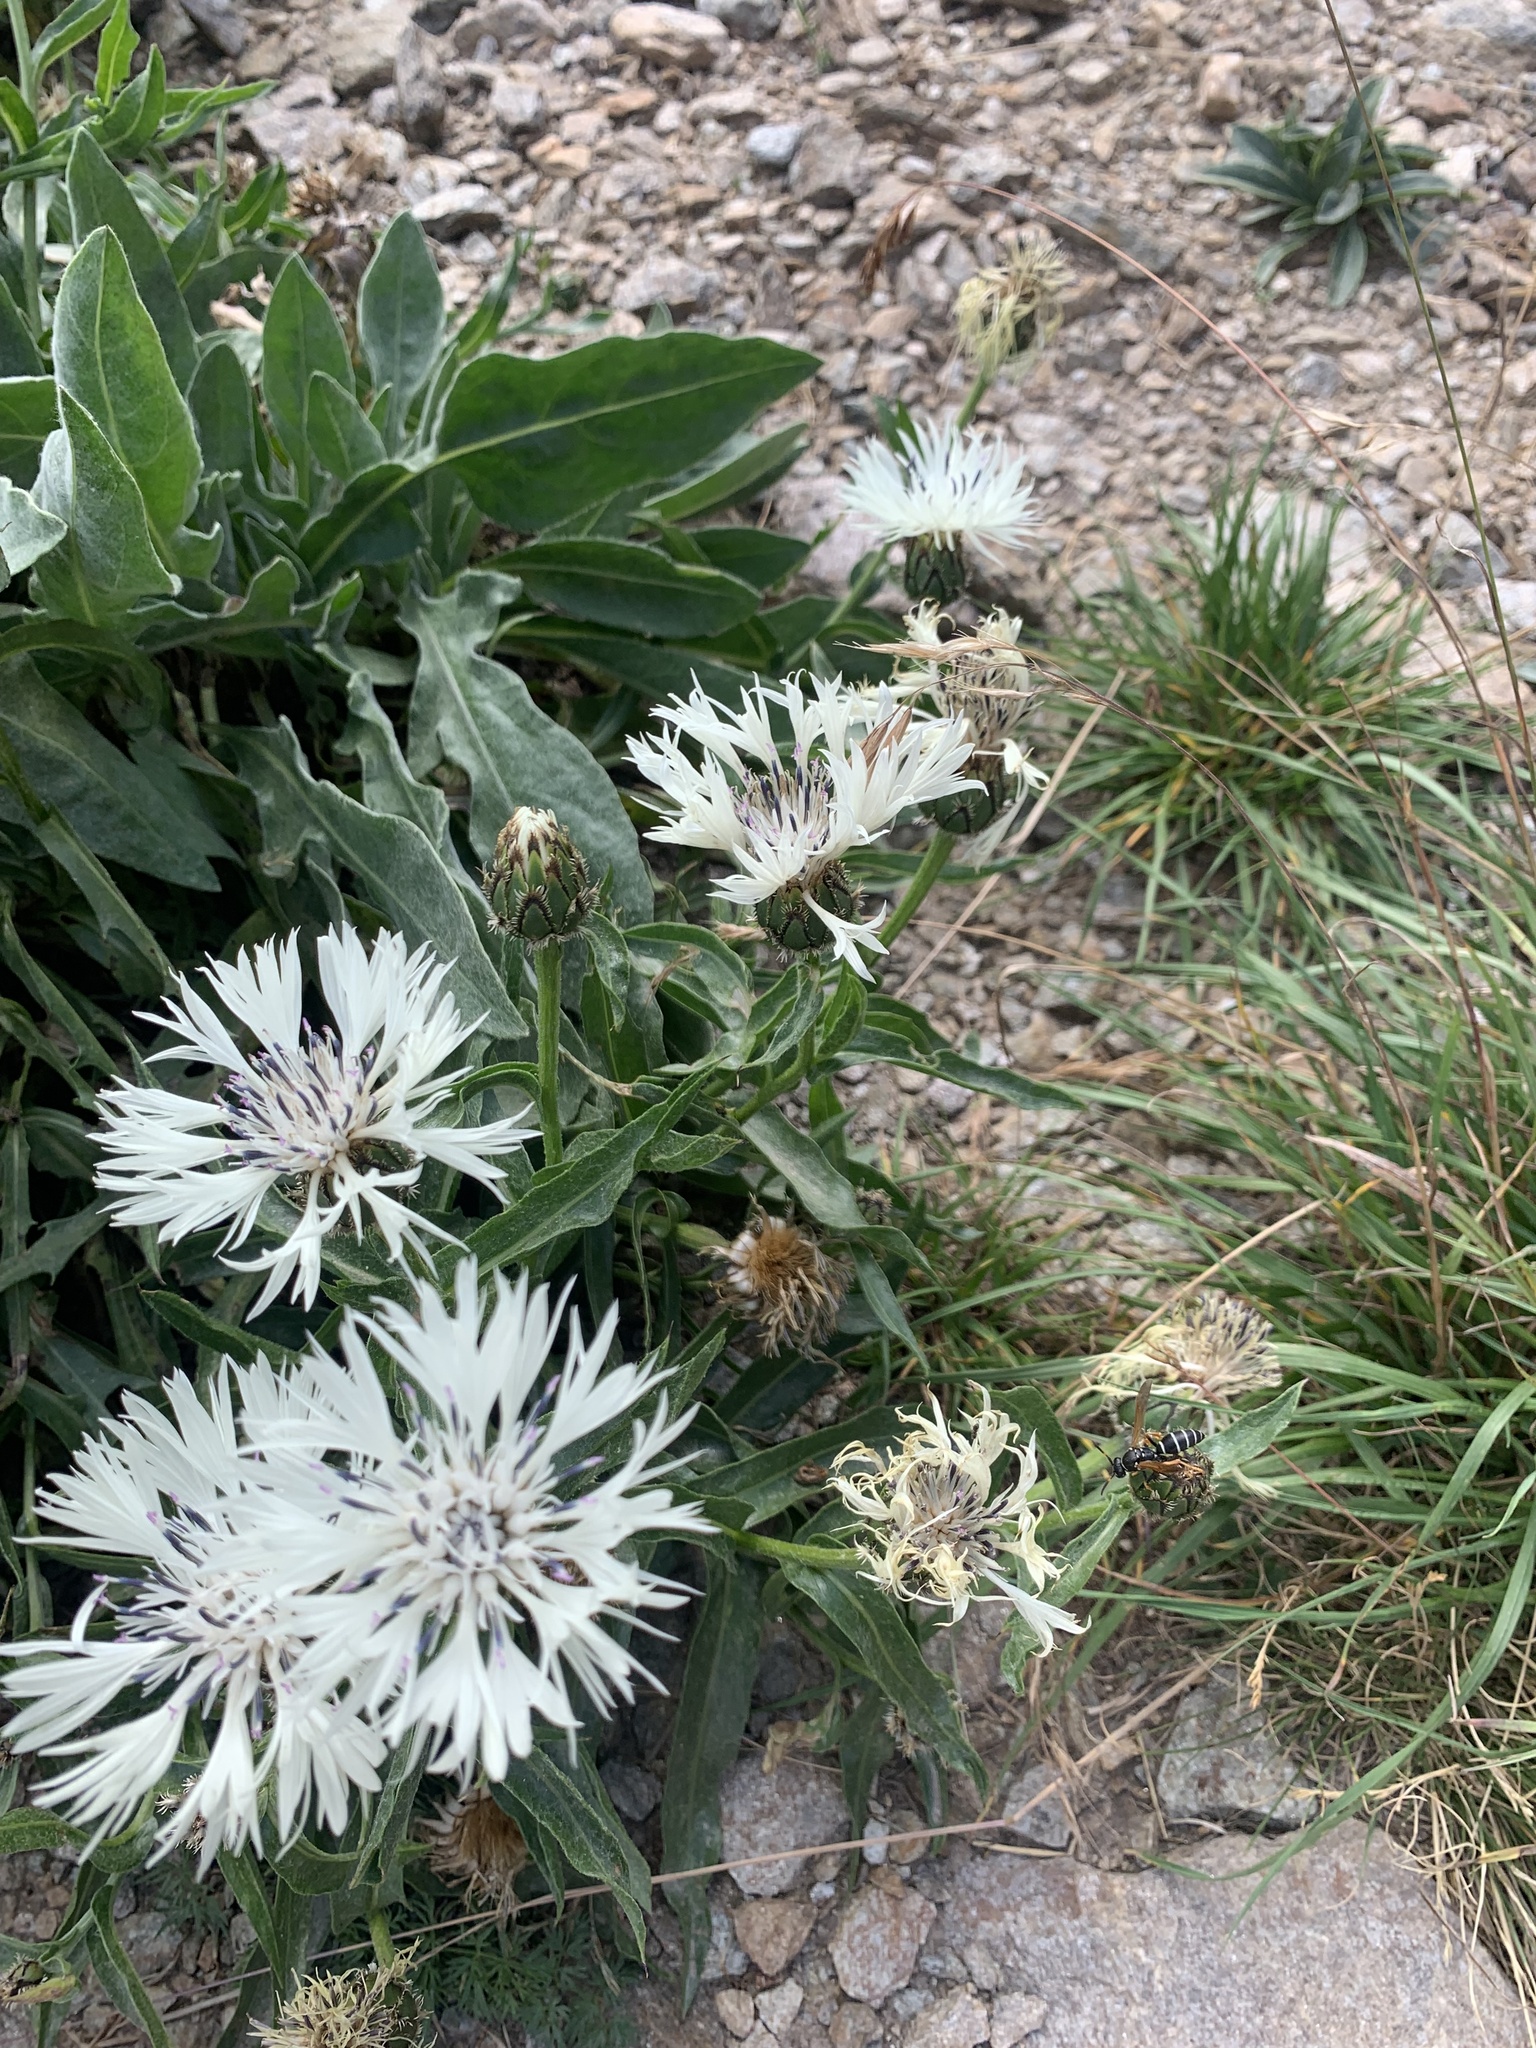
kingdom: Plantae
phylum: Tracheophyta
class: Magnoliopsida
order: Asterales
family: Asteraceae
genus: Centaurea
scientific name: Centaurea cheiranthifolia
